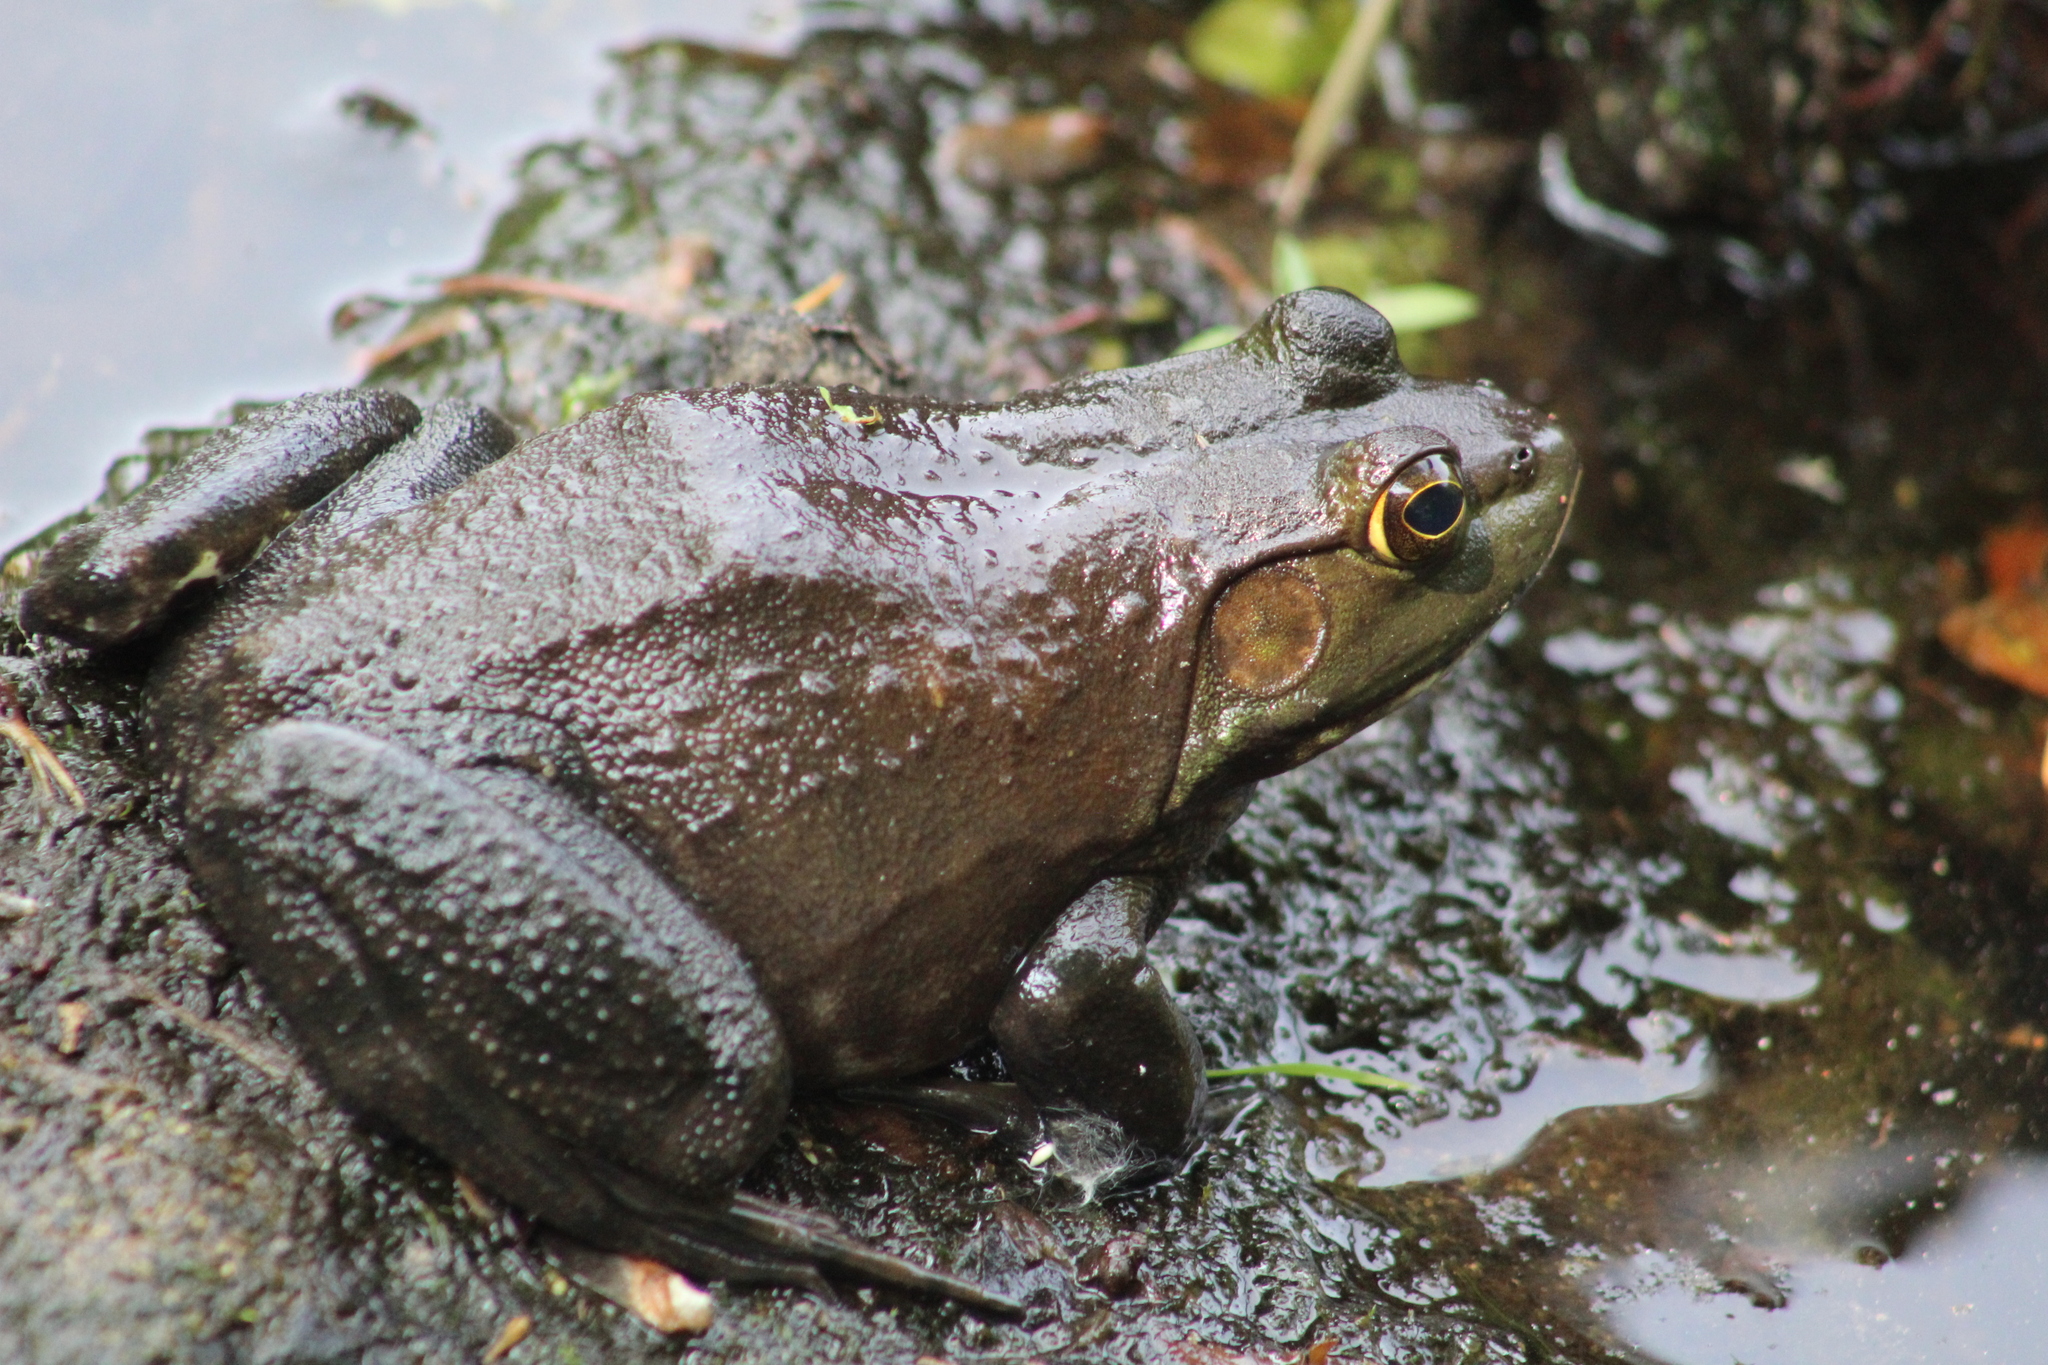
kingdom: Animalia
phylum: Chordata
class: Amphibia
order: Anura
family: Ranidae
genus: Lithobates
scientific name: Lithobates catesbeianus
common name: American bullfrog
